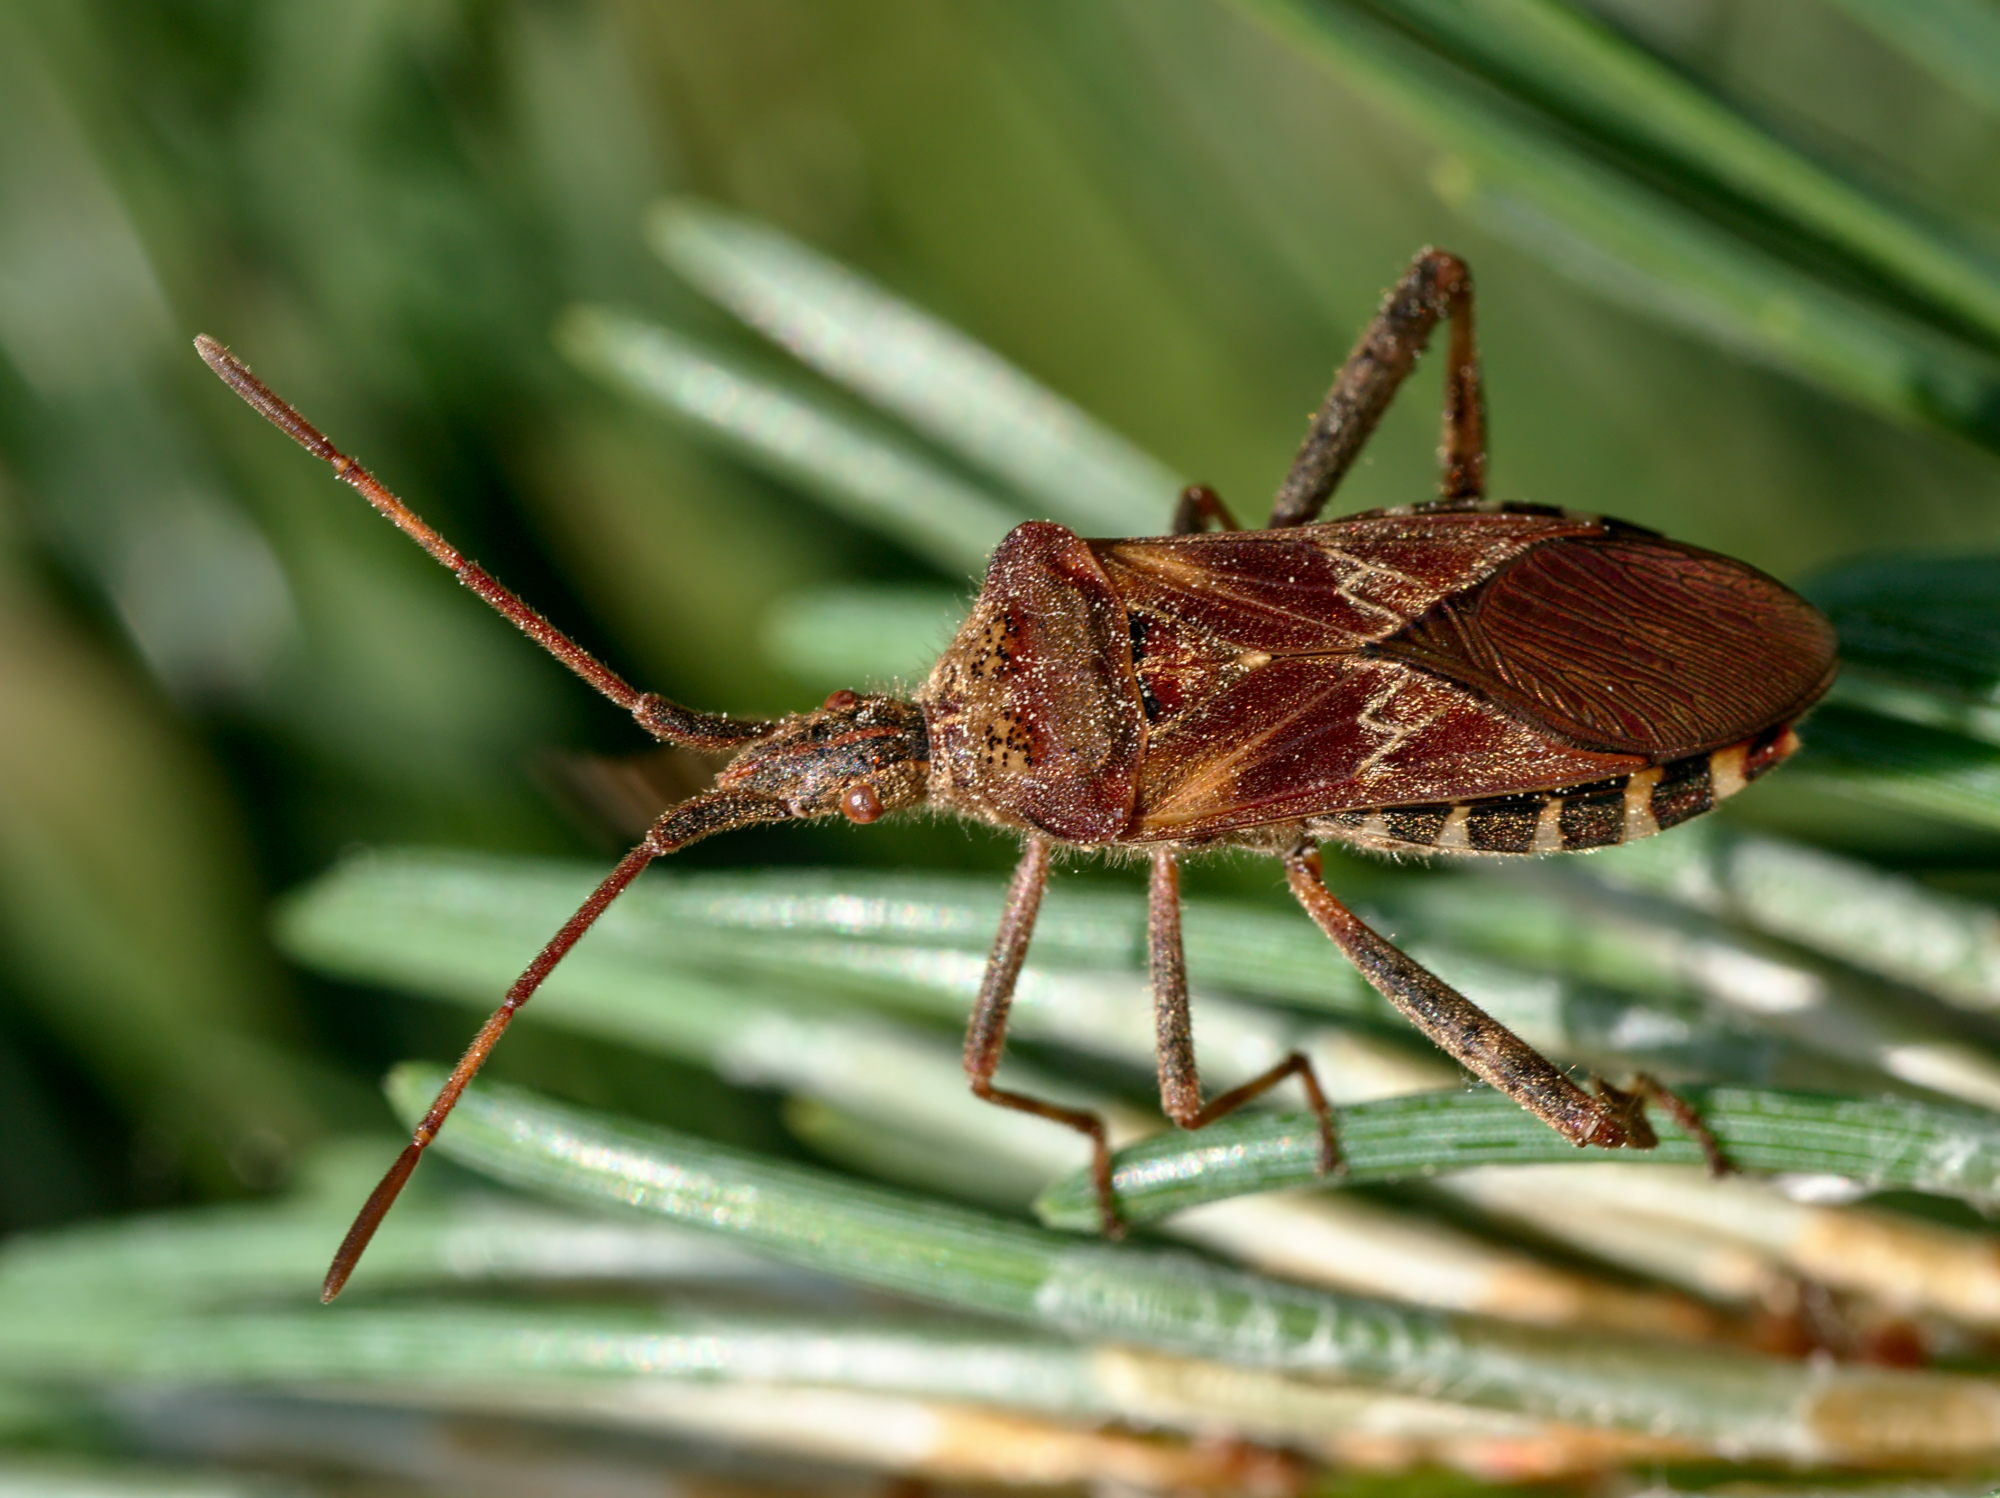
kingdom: Animalia
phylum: Arthropoda
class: Insecta
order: Hemiptera
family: Coreidae
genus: Leptoglossus
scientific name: Leptoglossus occidentalis
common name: Western conifer-seed bug
